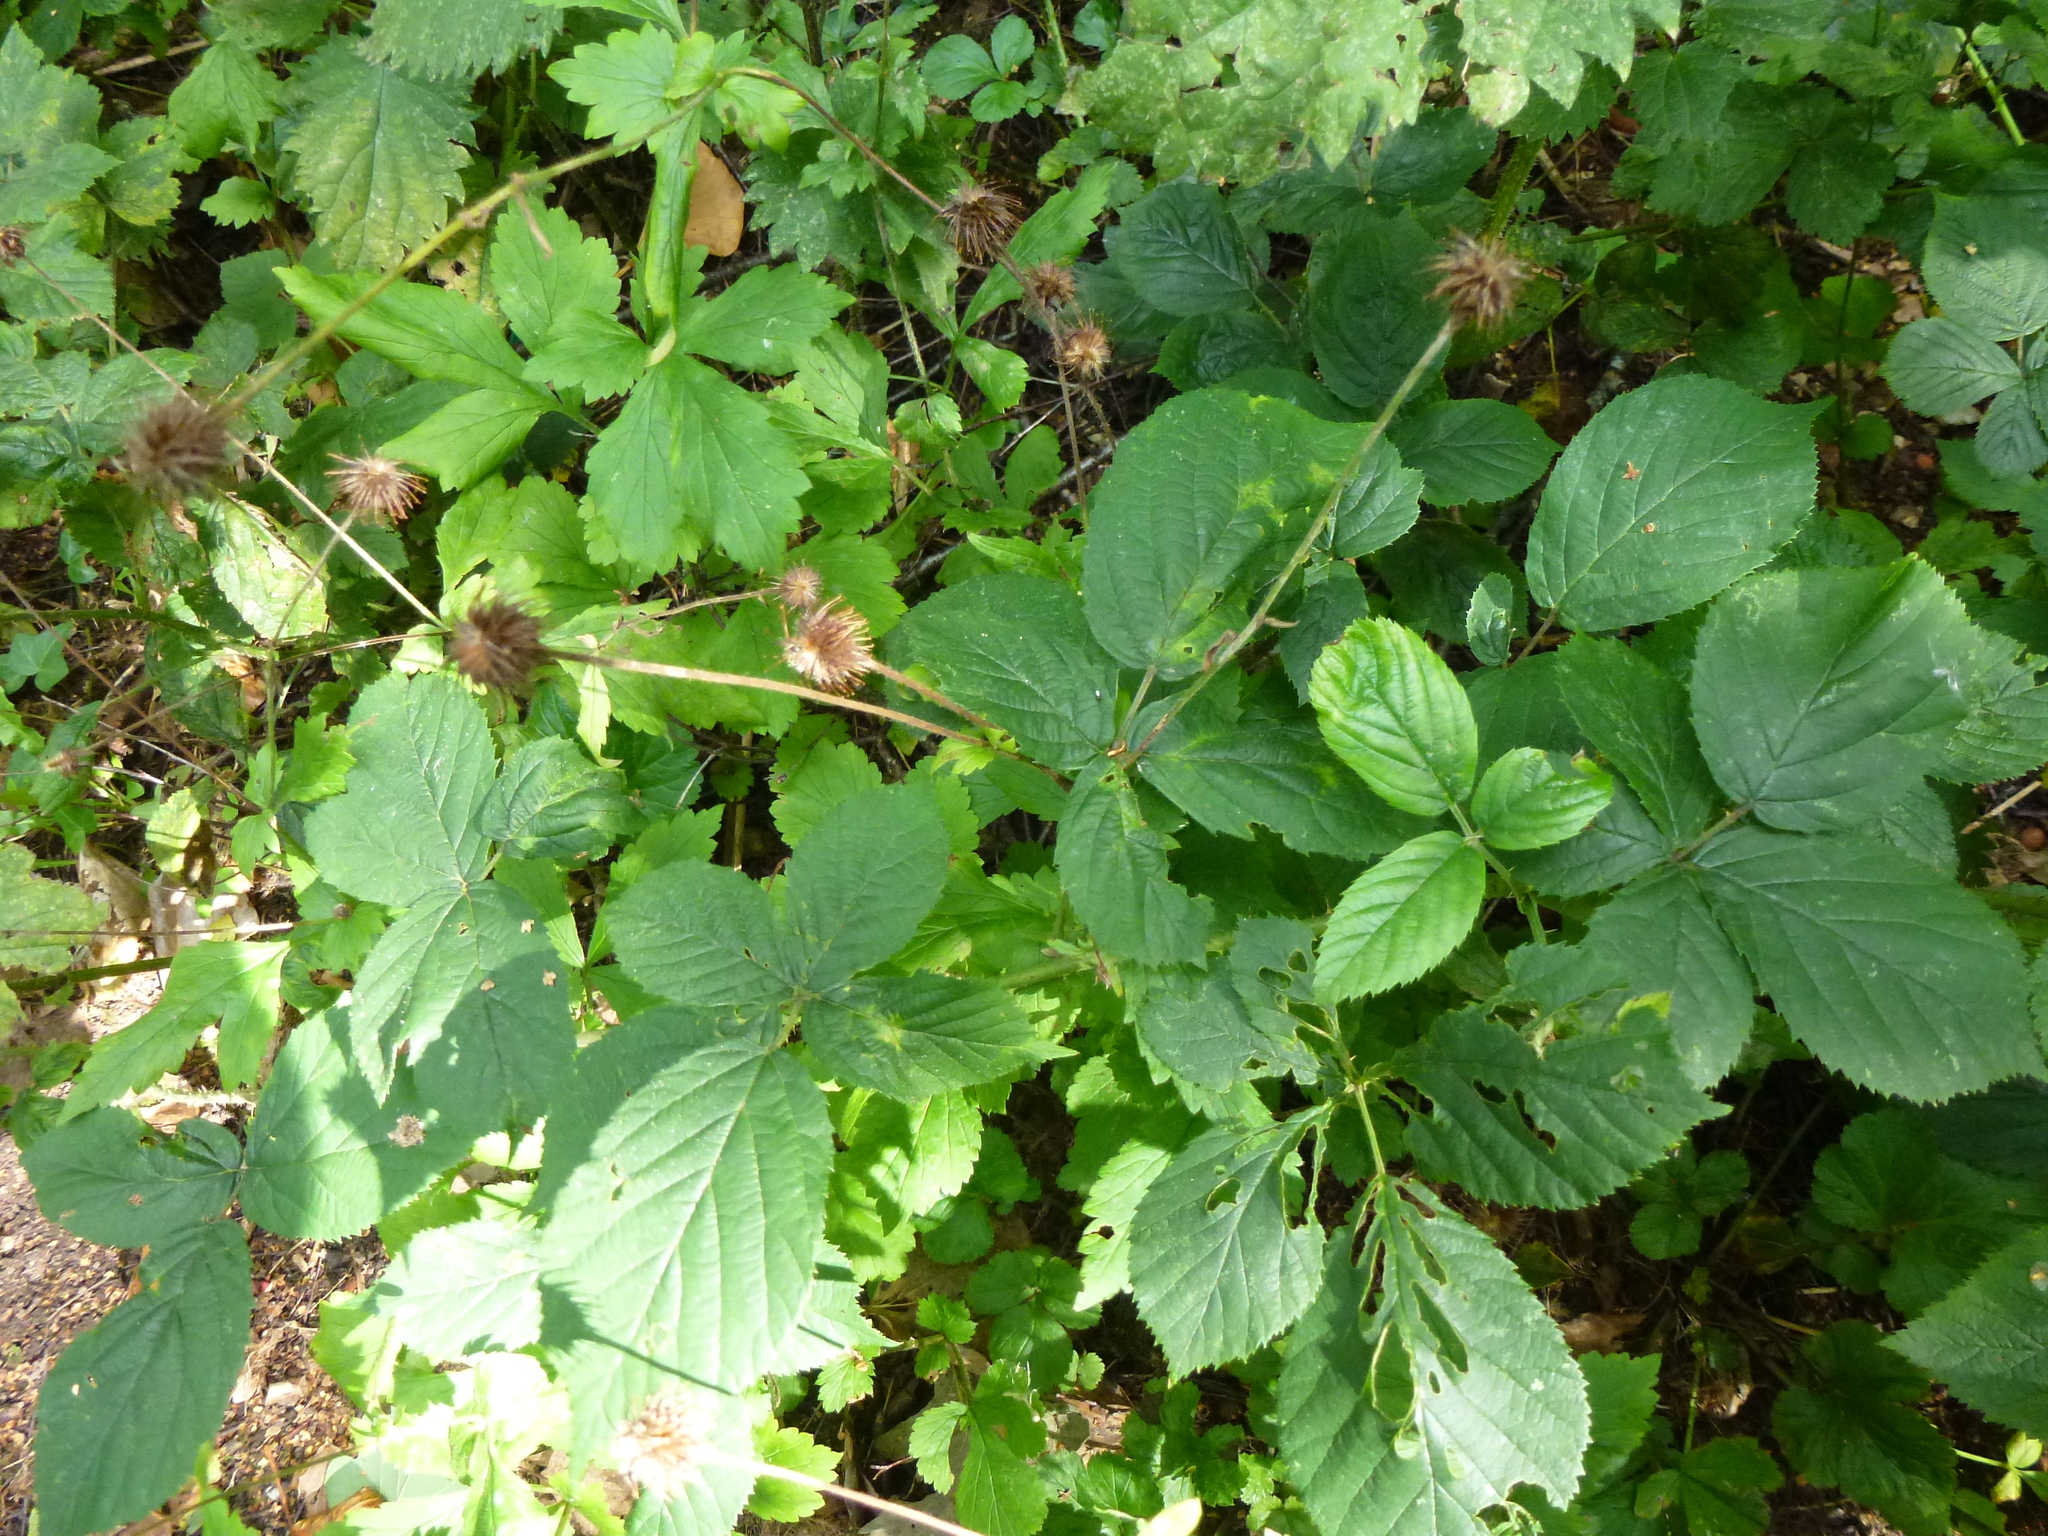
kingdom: Plantae
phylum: Tracheophyta
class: Magnoliopsida
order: Rosales
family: Rosaceae
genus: Geum
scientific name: Geum urbanum
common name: Wood avens
